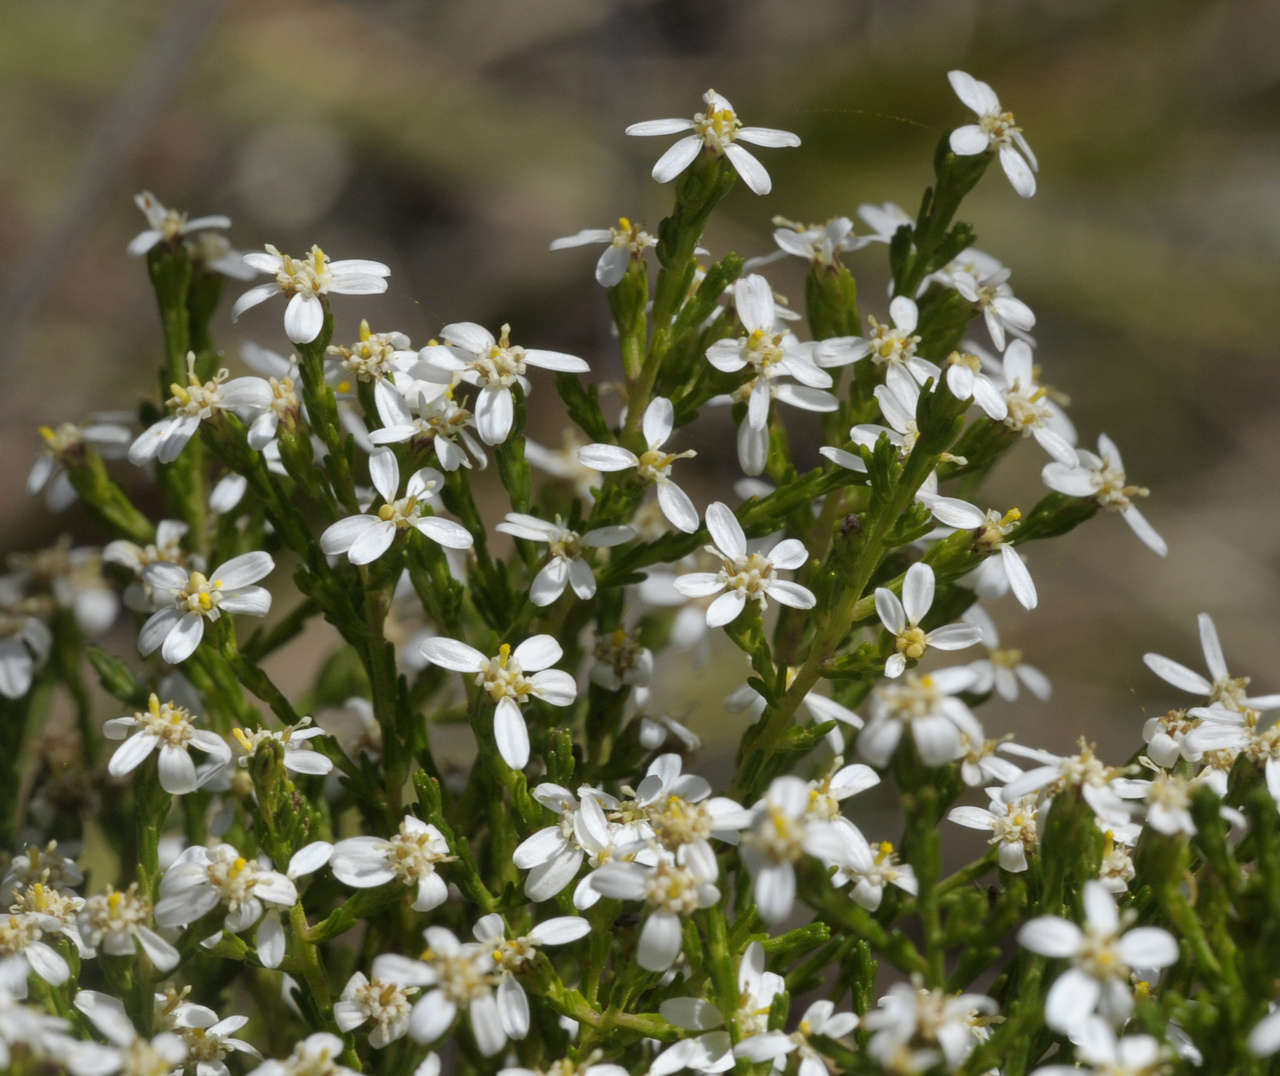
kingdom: Plantae
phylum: Tracheophyta
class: Magnoliopsida
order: Asterales
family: Asteraceae
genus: Olearia
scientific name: Olearia teretifolia
